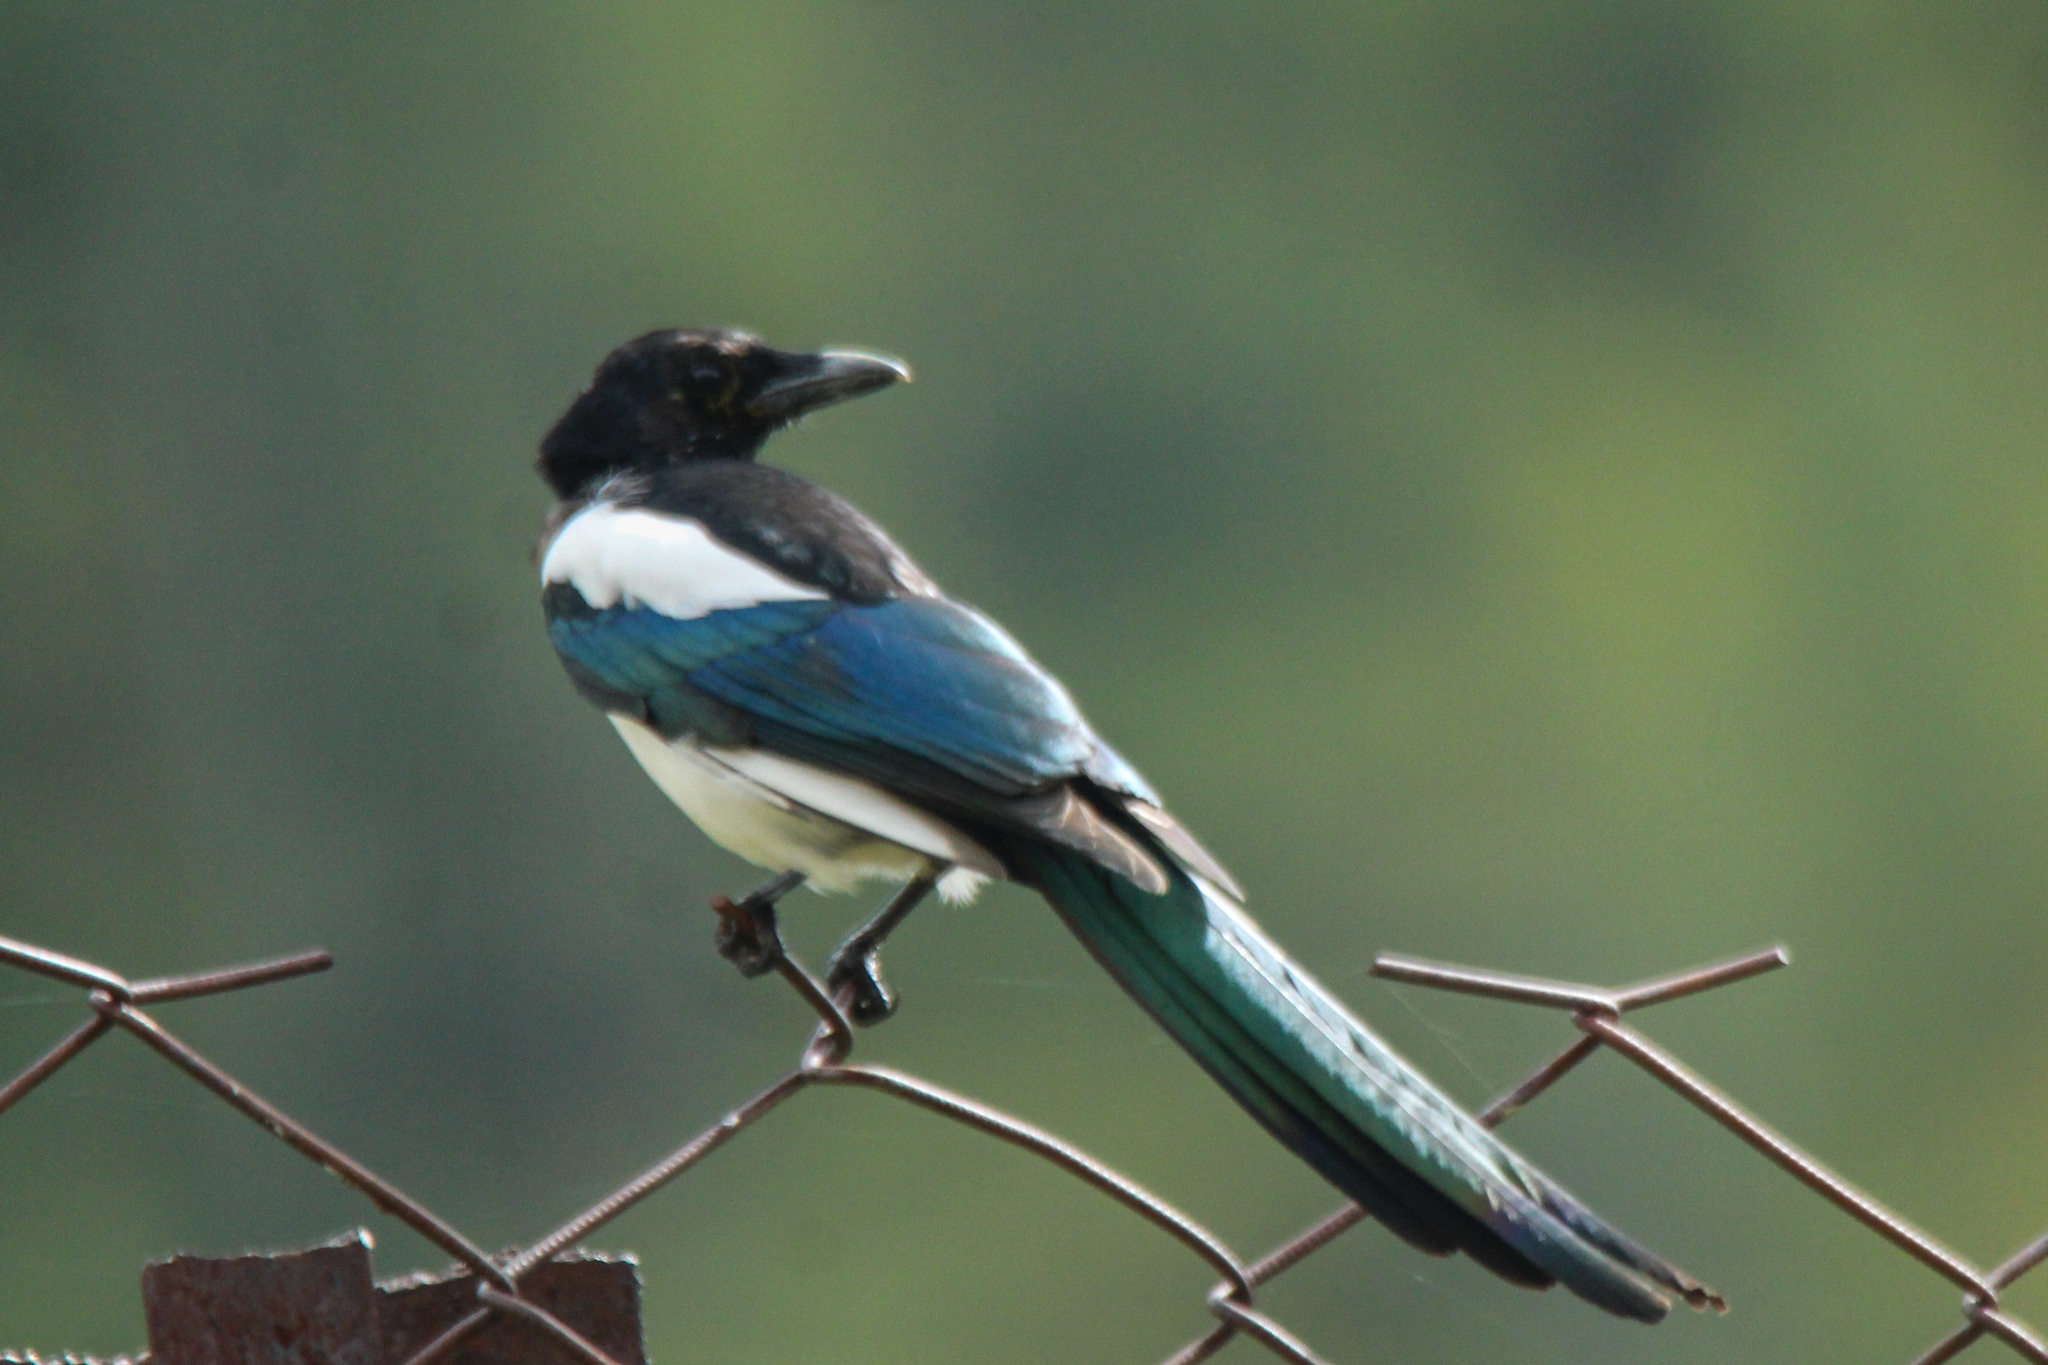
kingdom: Animalia
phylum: Chordata
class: Aves
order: Passeriformes
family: Corvidae
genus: Pica
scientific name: Pica pica
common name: Eurasian magpie
